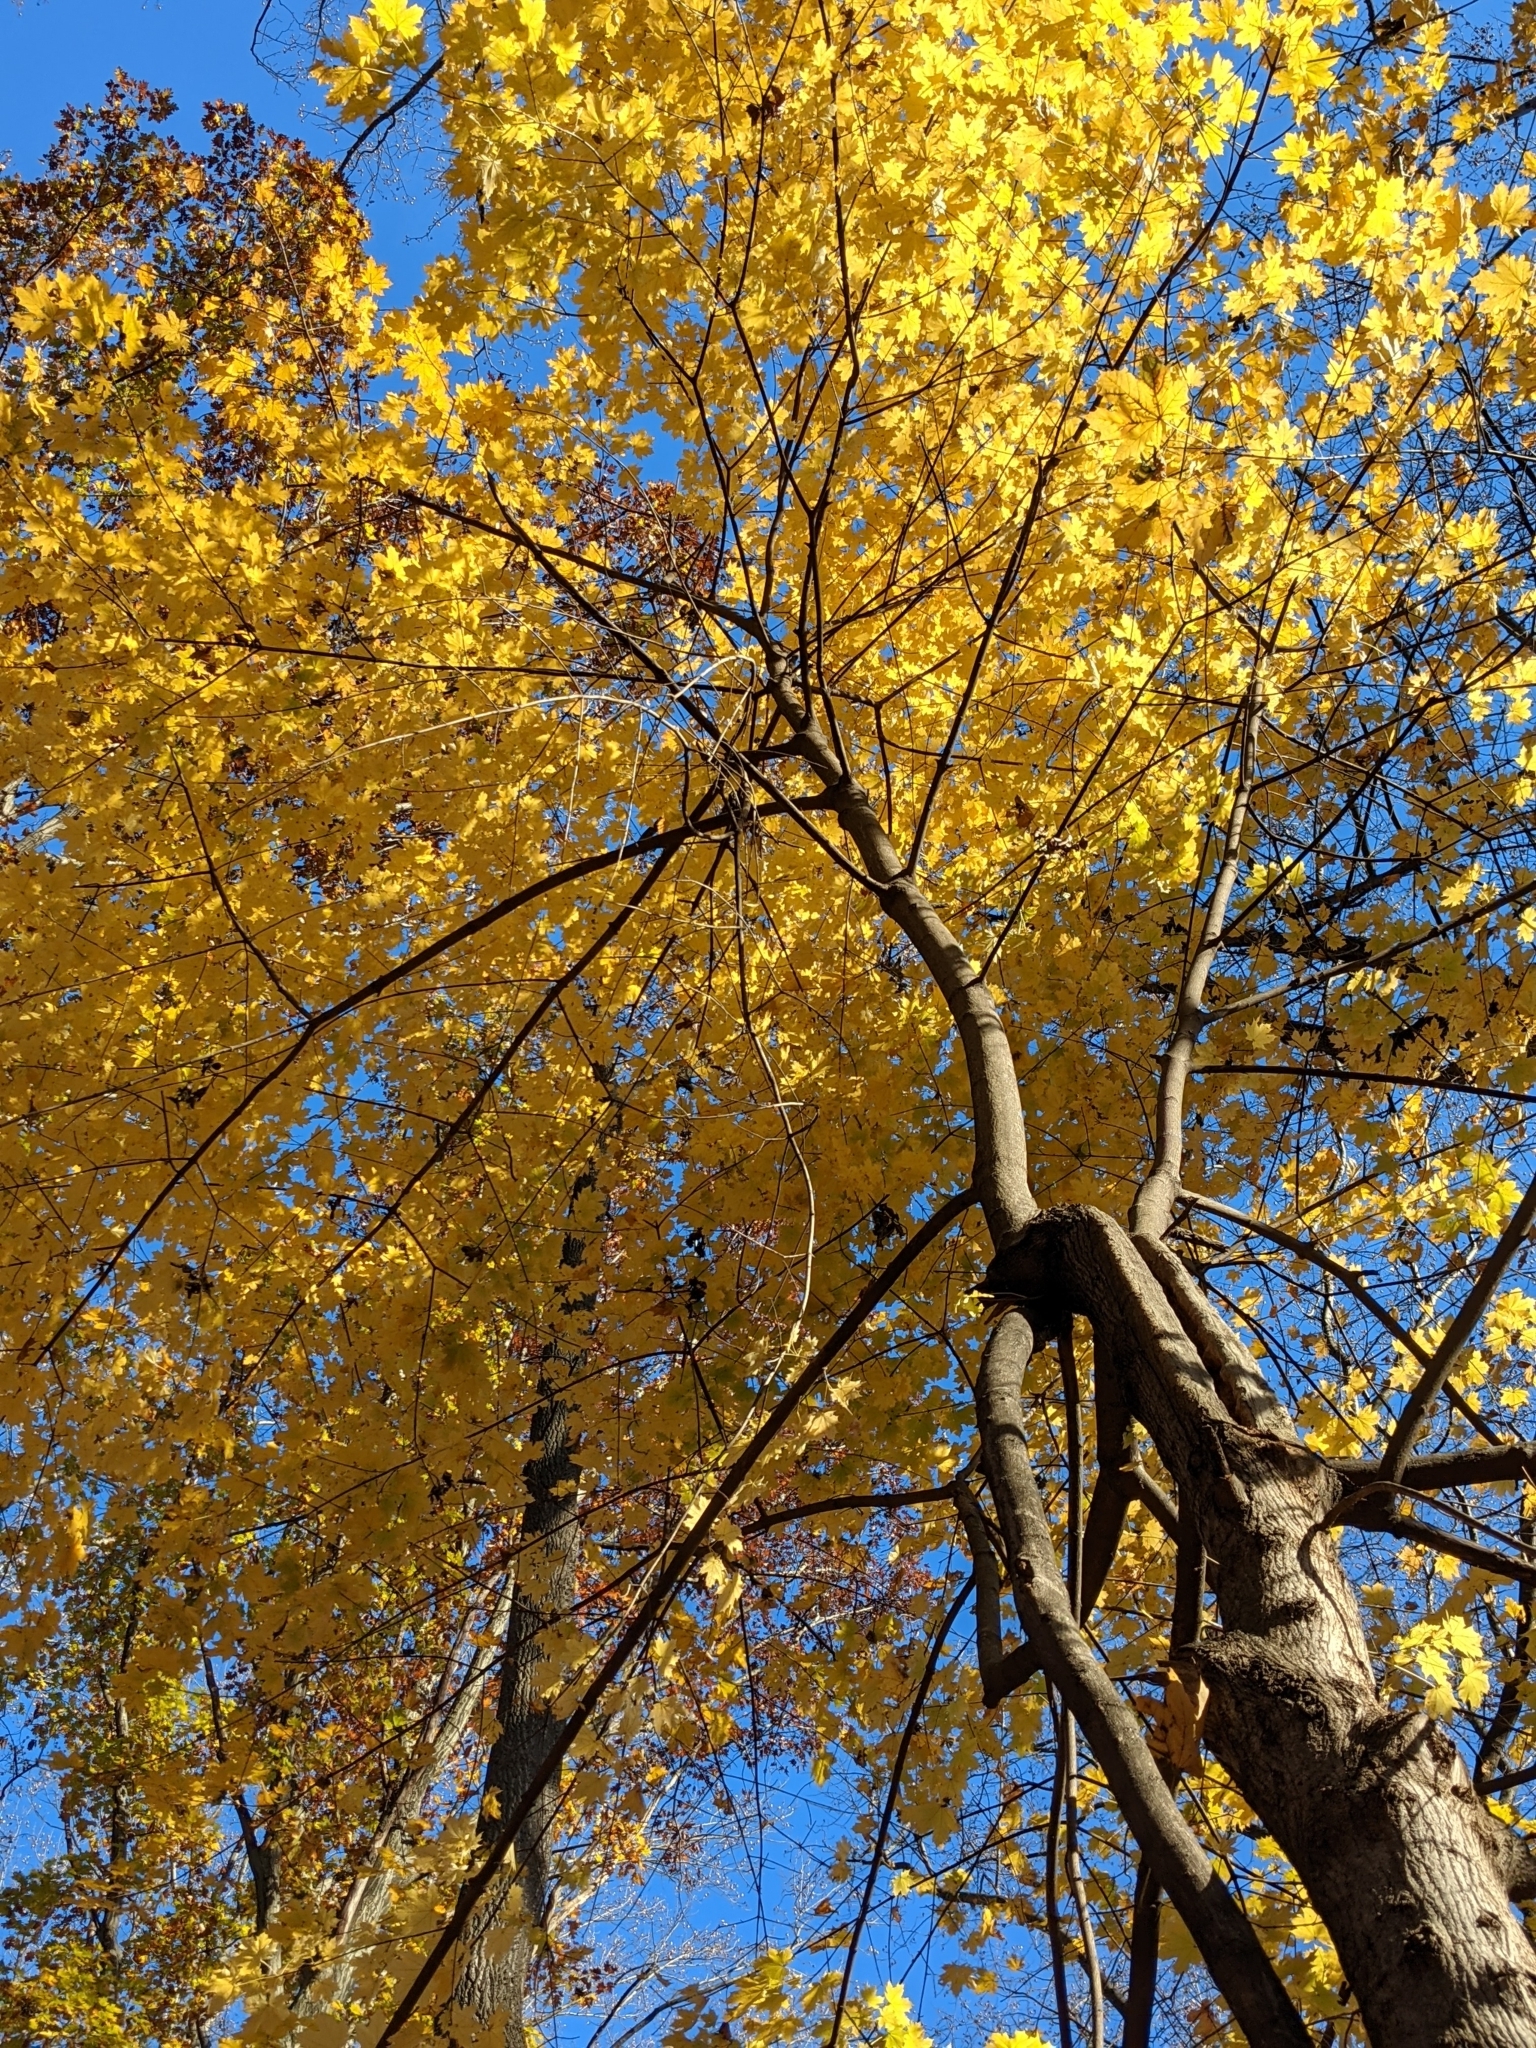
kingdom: Plantae
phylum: Tracheophyta
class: Magnoliopsida
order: Sapindales
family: Sapindaceae
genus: Acer
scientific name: Acer platanoides
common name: Norway maple
